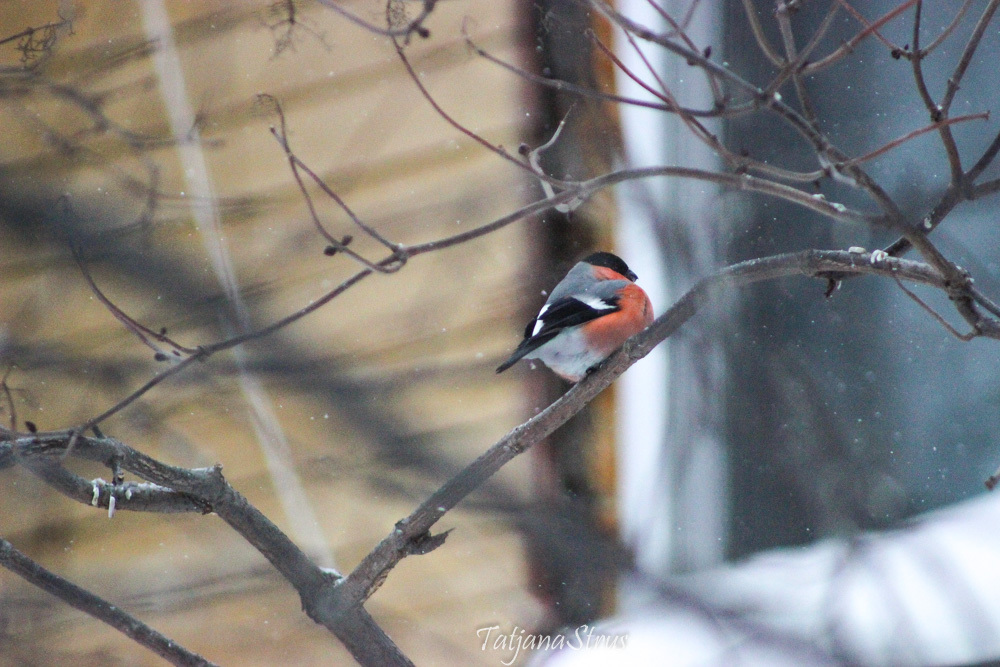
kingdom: Animalia
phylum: Chordata
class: Aves
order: Passeriformes
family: Fringillidae
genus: Pyrrhula
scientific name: Pyrrhula pyrrhula
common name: Eurasian bullfinch
